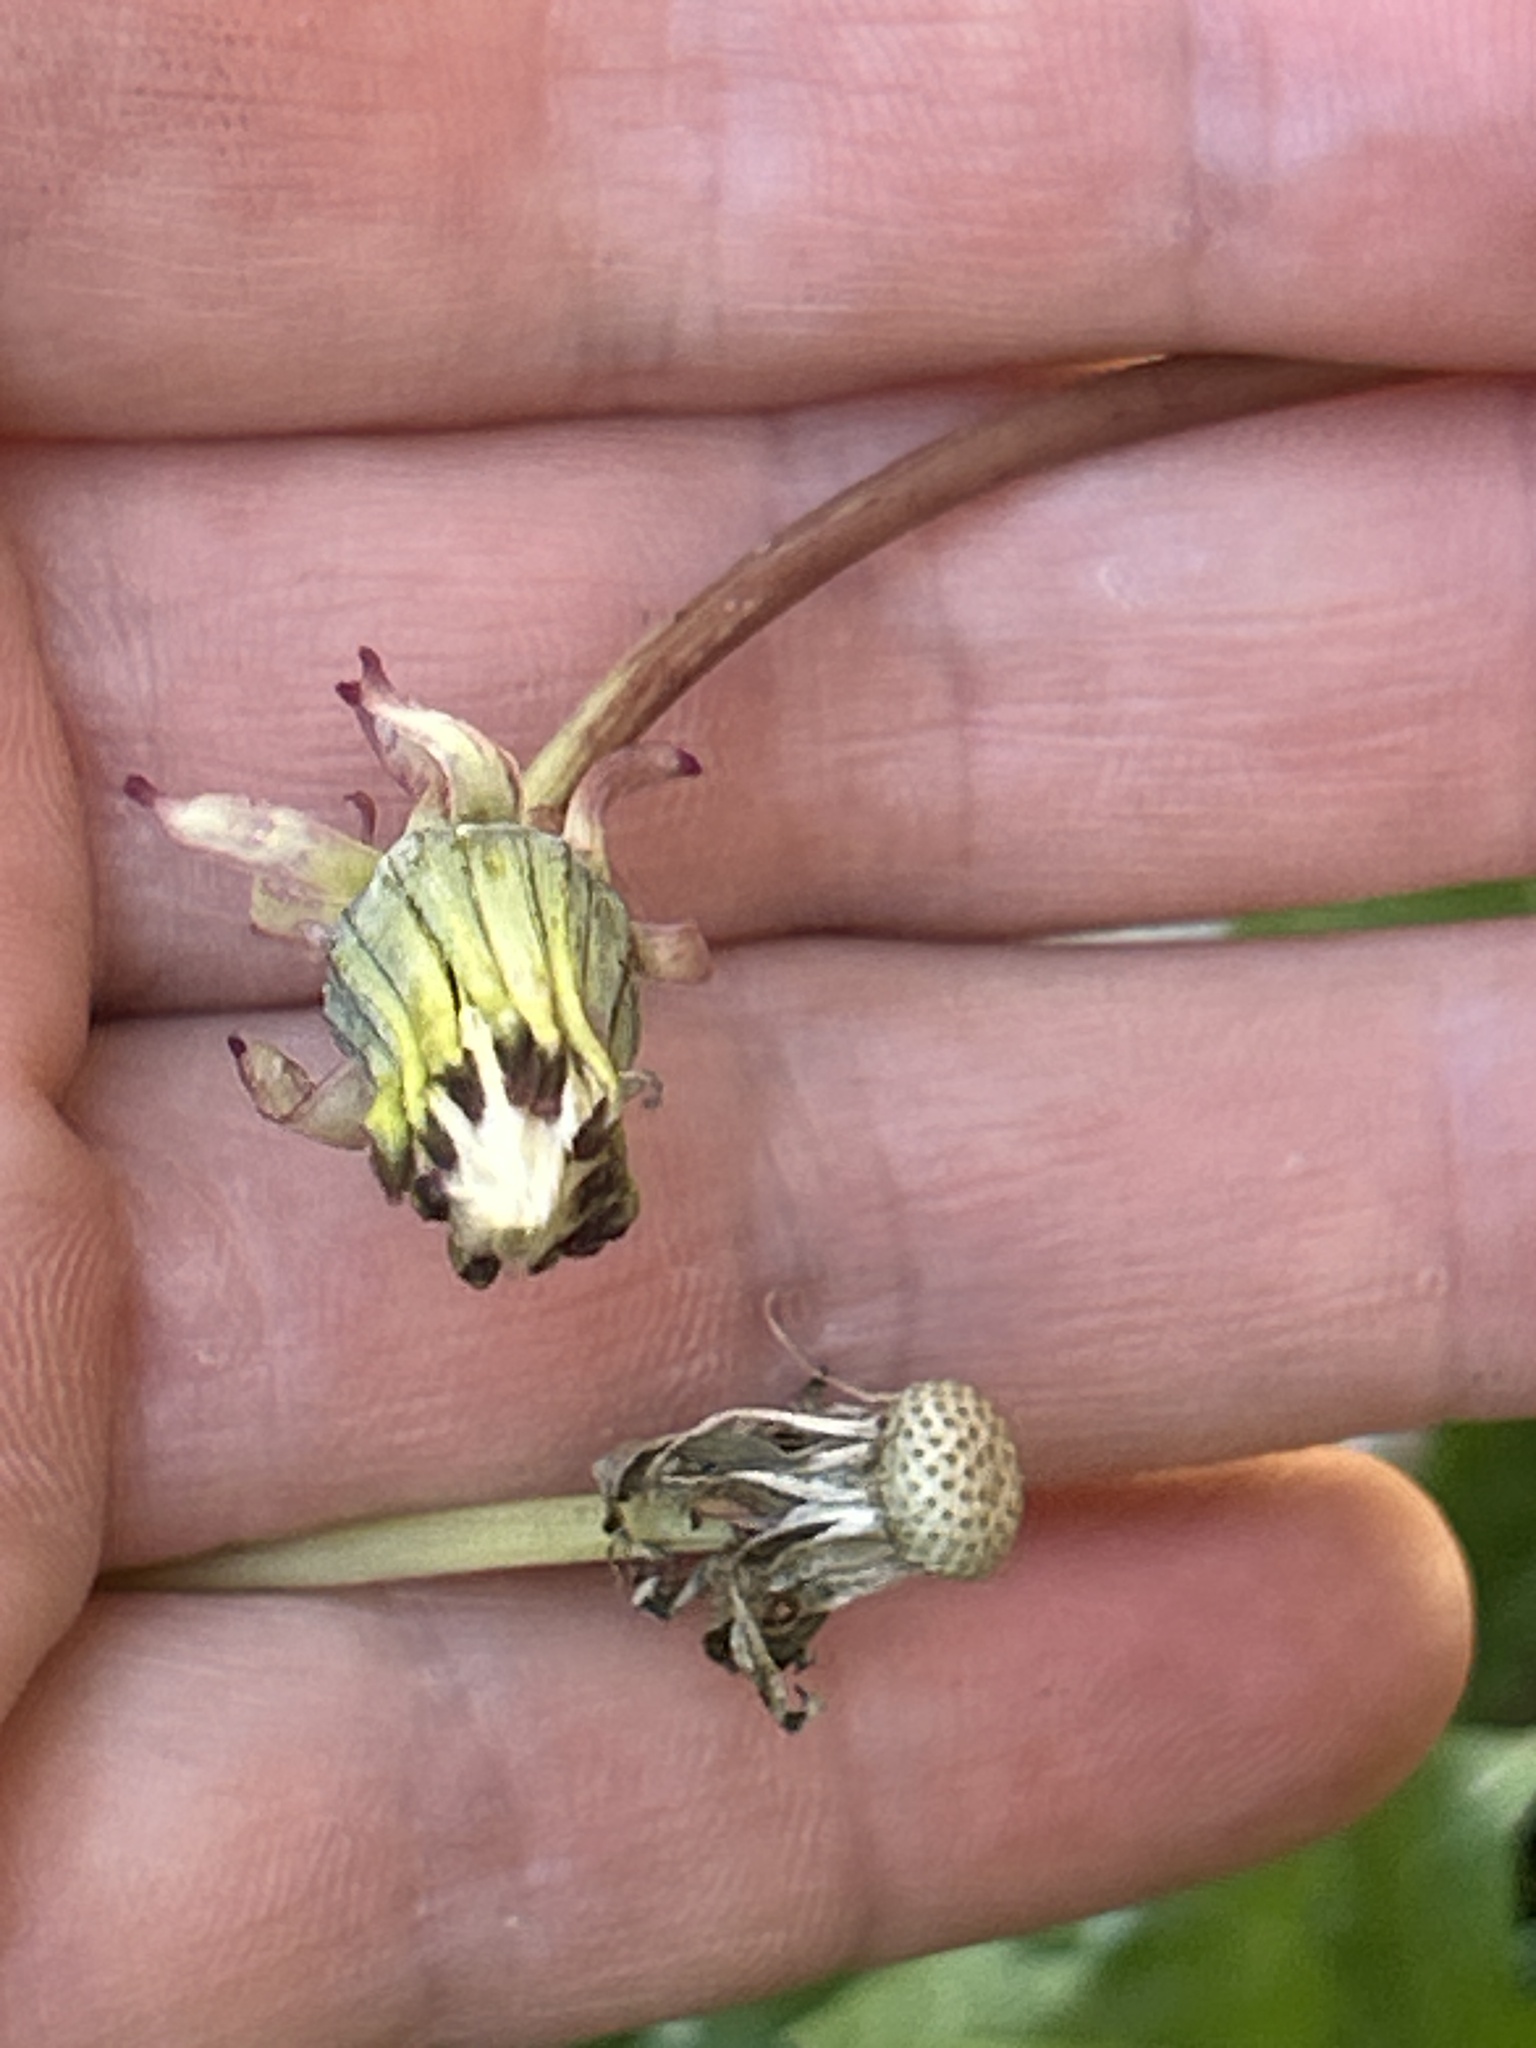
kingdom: Plantae
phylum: Tracheophyta
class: Magnoliopsida
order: Asterales
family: Asteraceae
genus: Taraxacum
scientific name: Taraxacum officinale
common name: Common dandelion
